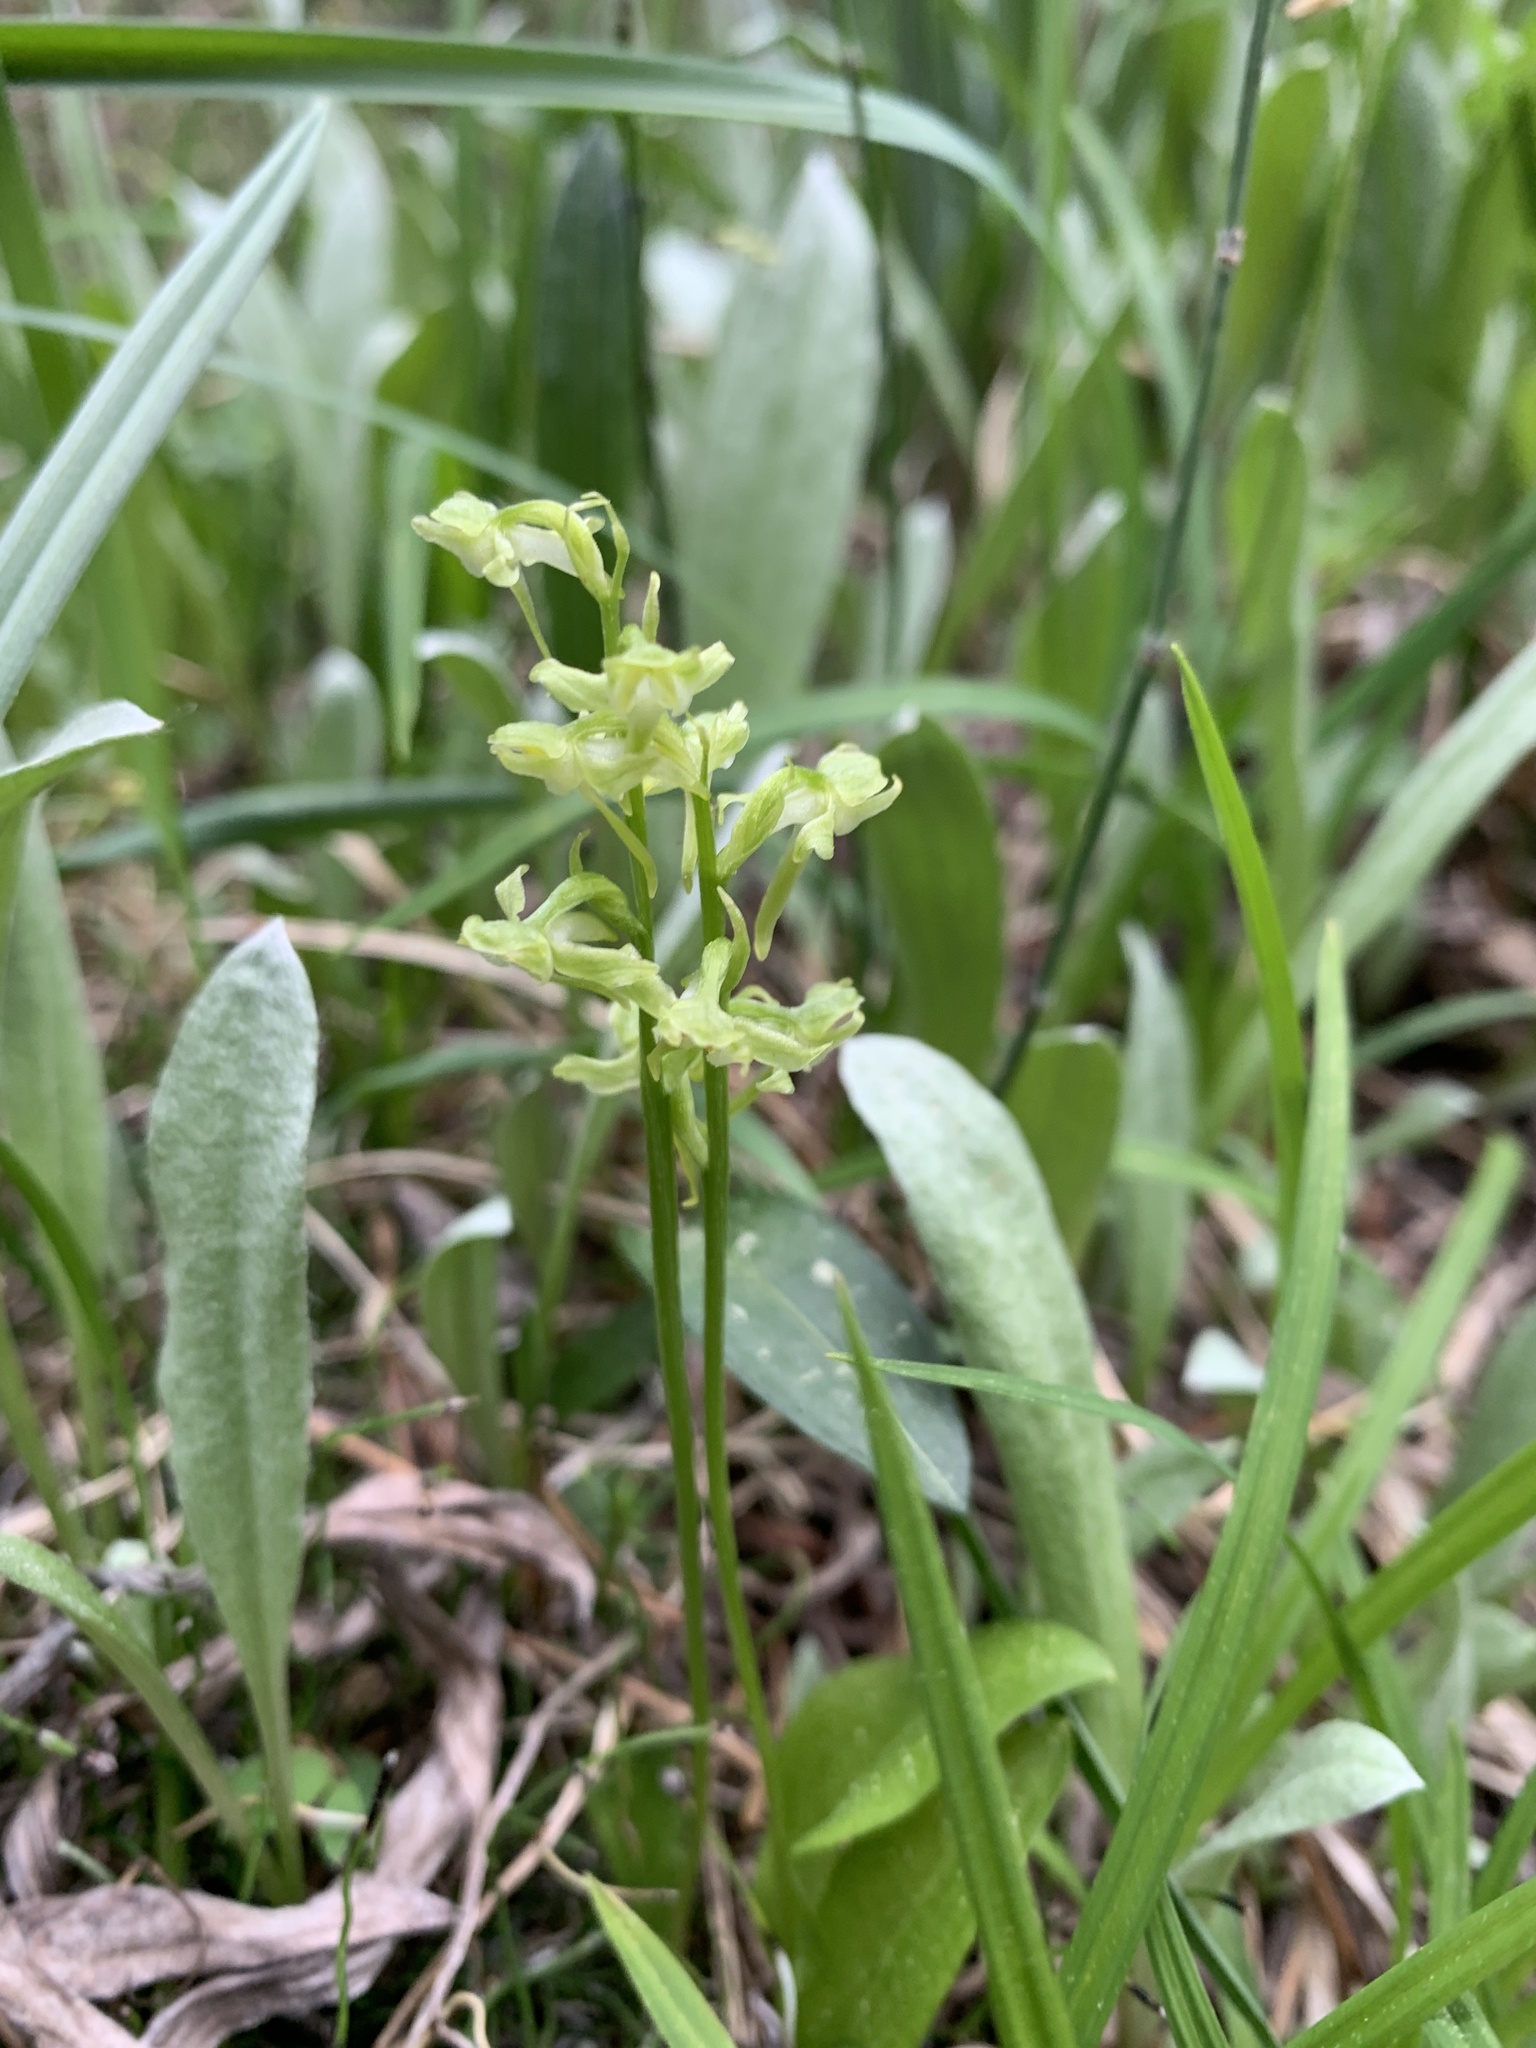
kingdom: Plantae
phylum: Tracheophyta
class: Liliopsida
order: Asparagales
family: Orchidaceae
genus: Platanthera
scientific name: Platanthera obtusata
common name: Blunt bog orchid
